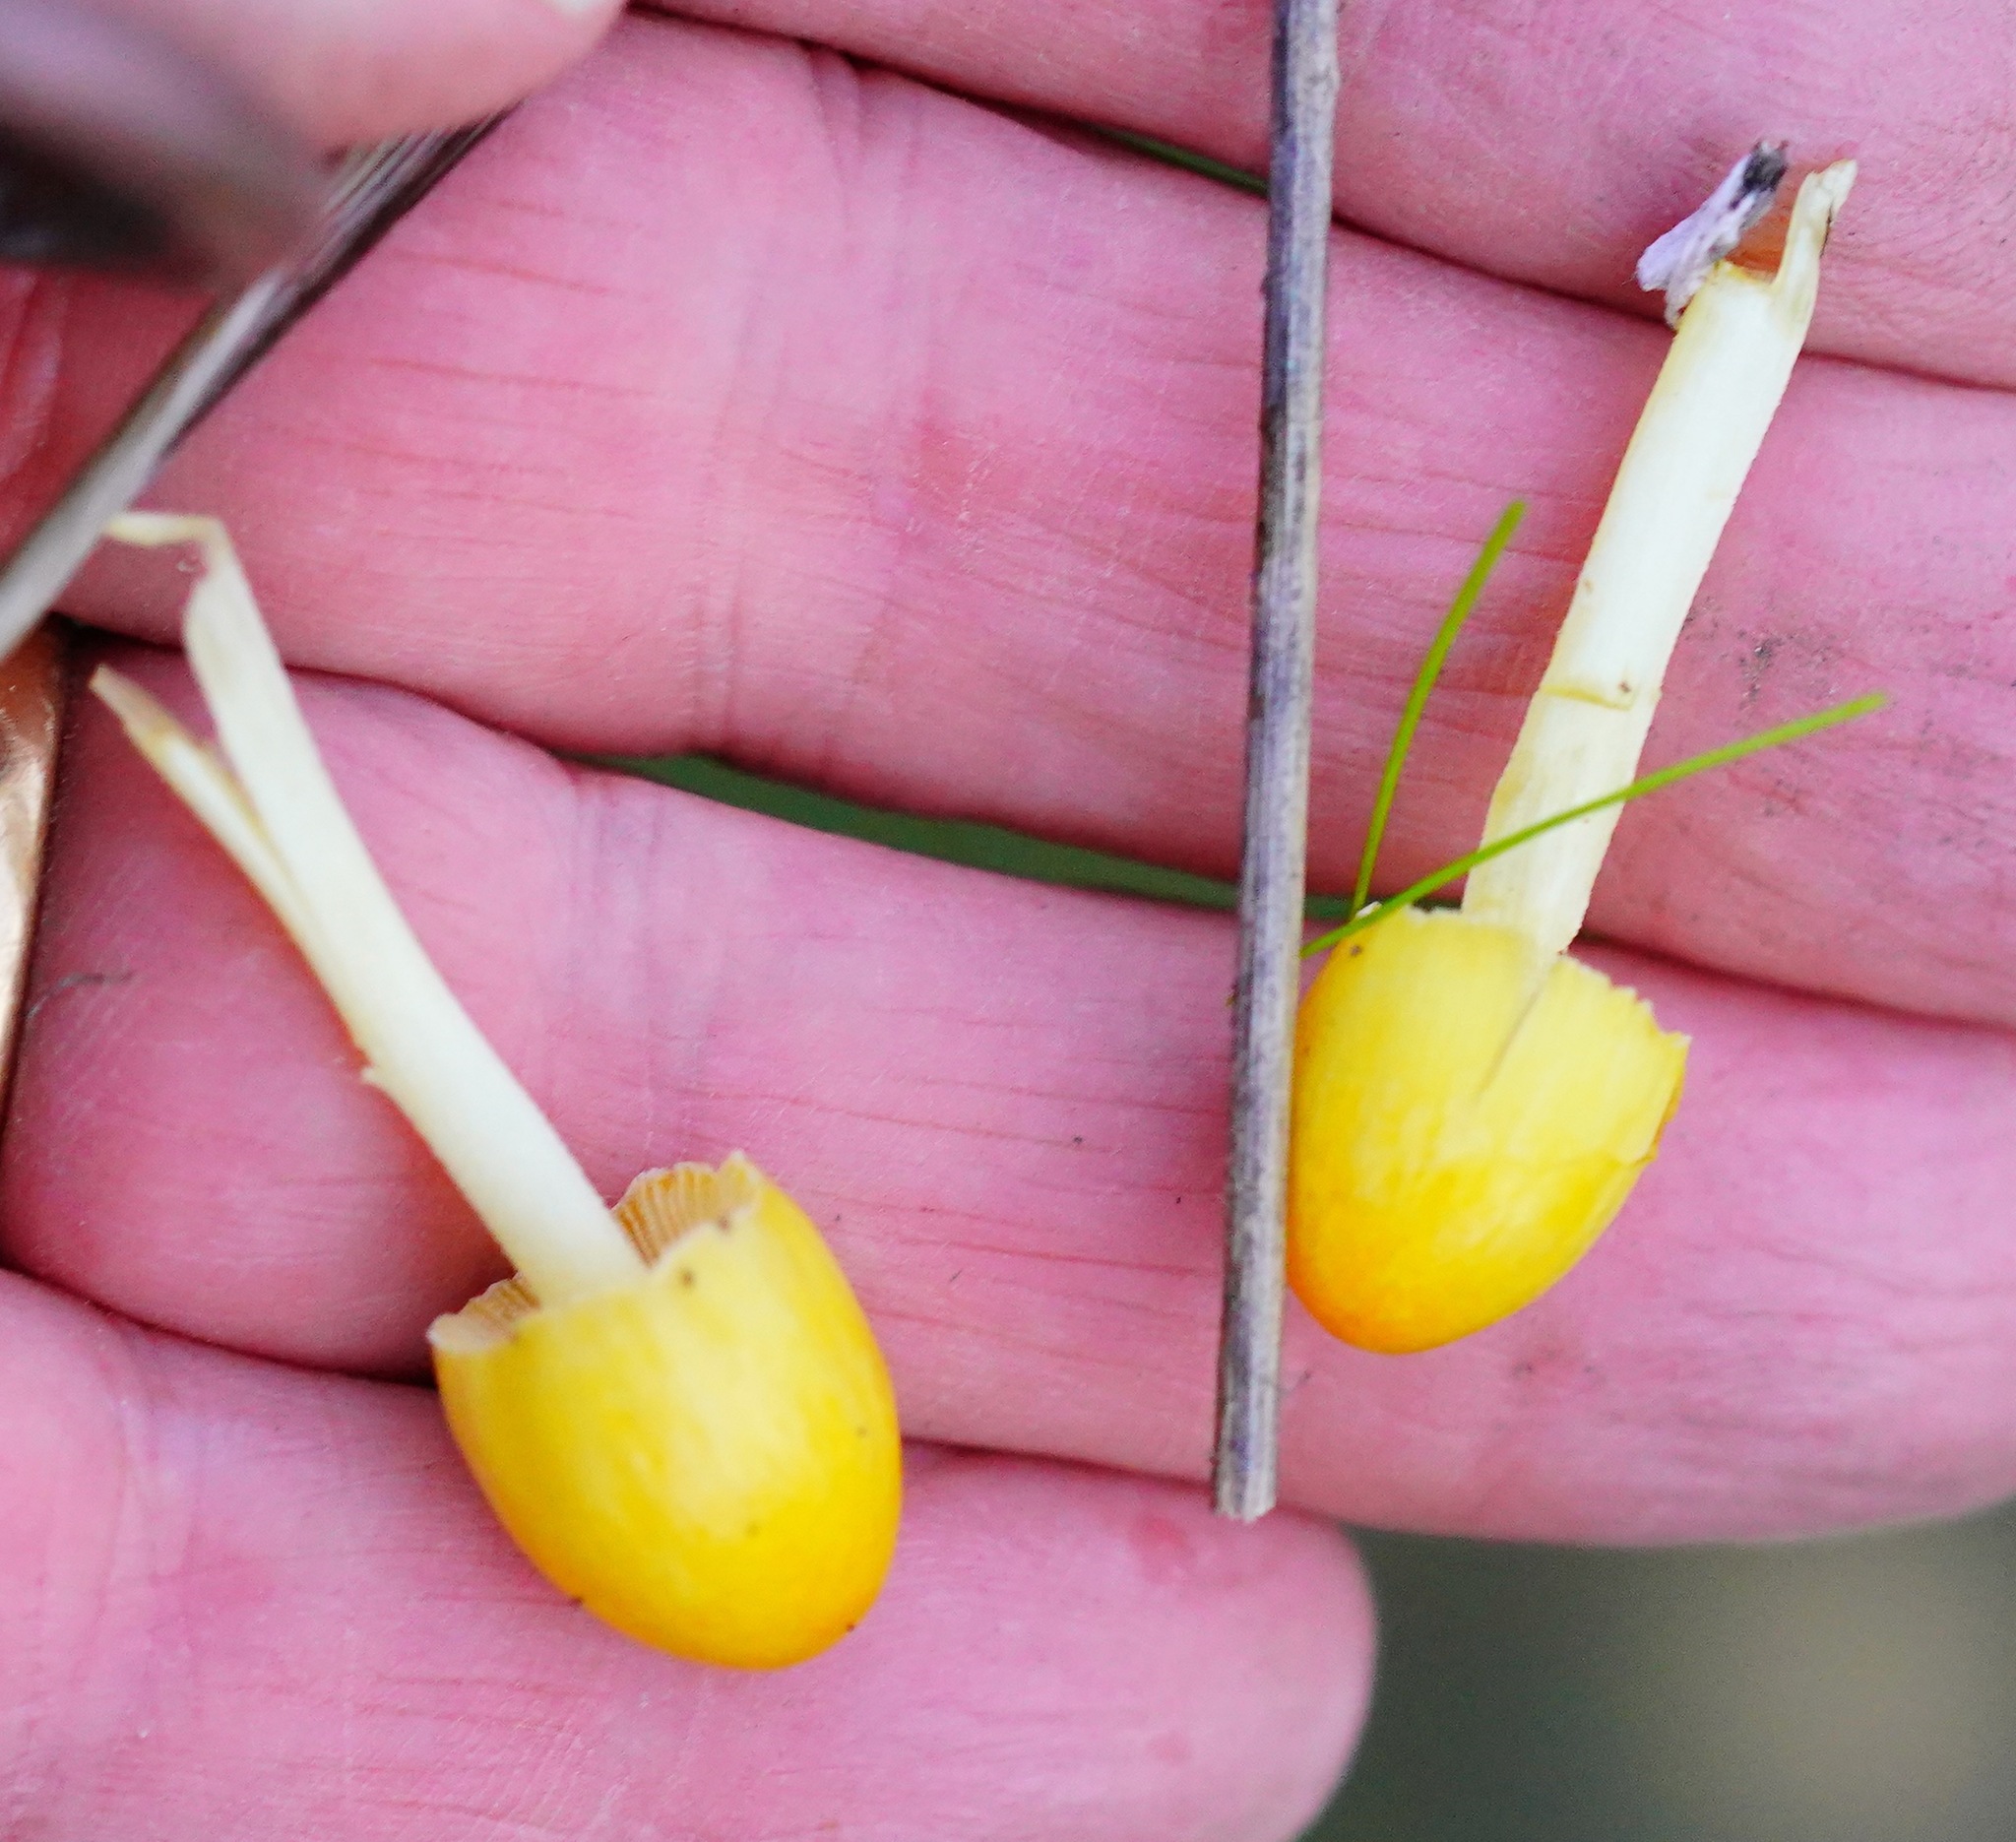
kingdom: Fungi
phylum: Basidiomycota
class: Agaricomycetes
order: Agaricales
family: Bolbitiaceae
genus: Bolbitius
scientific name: Bolbitius titubans
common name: Yellow fieldcap
